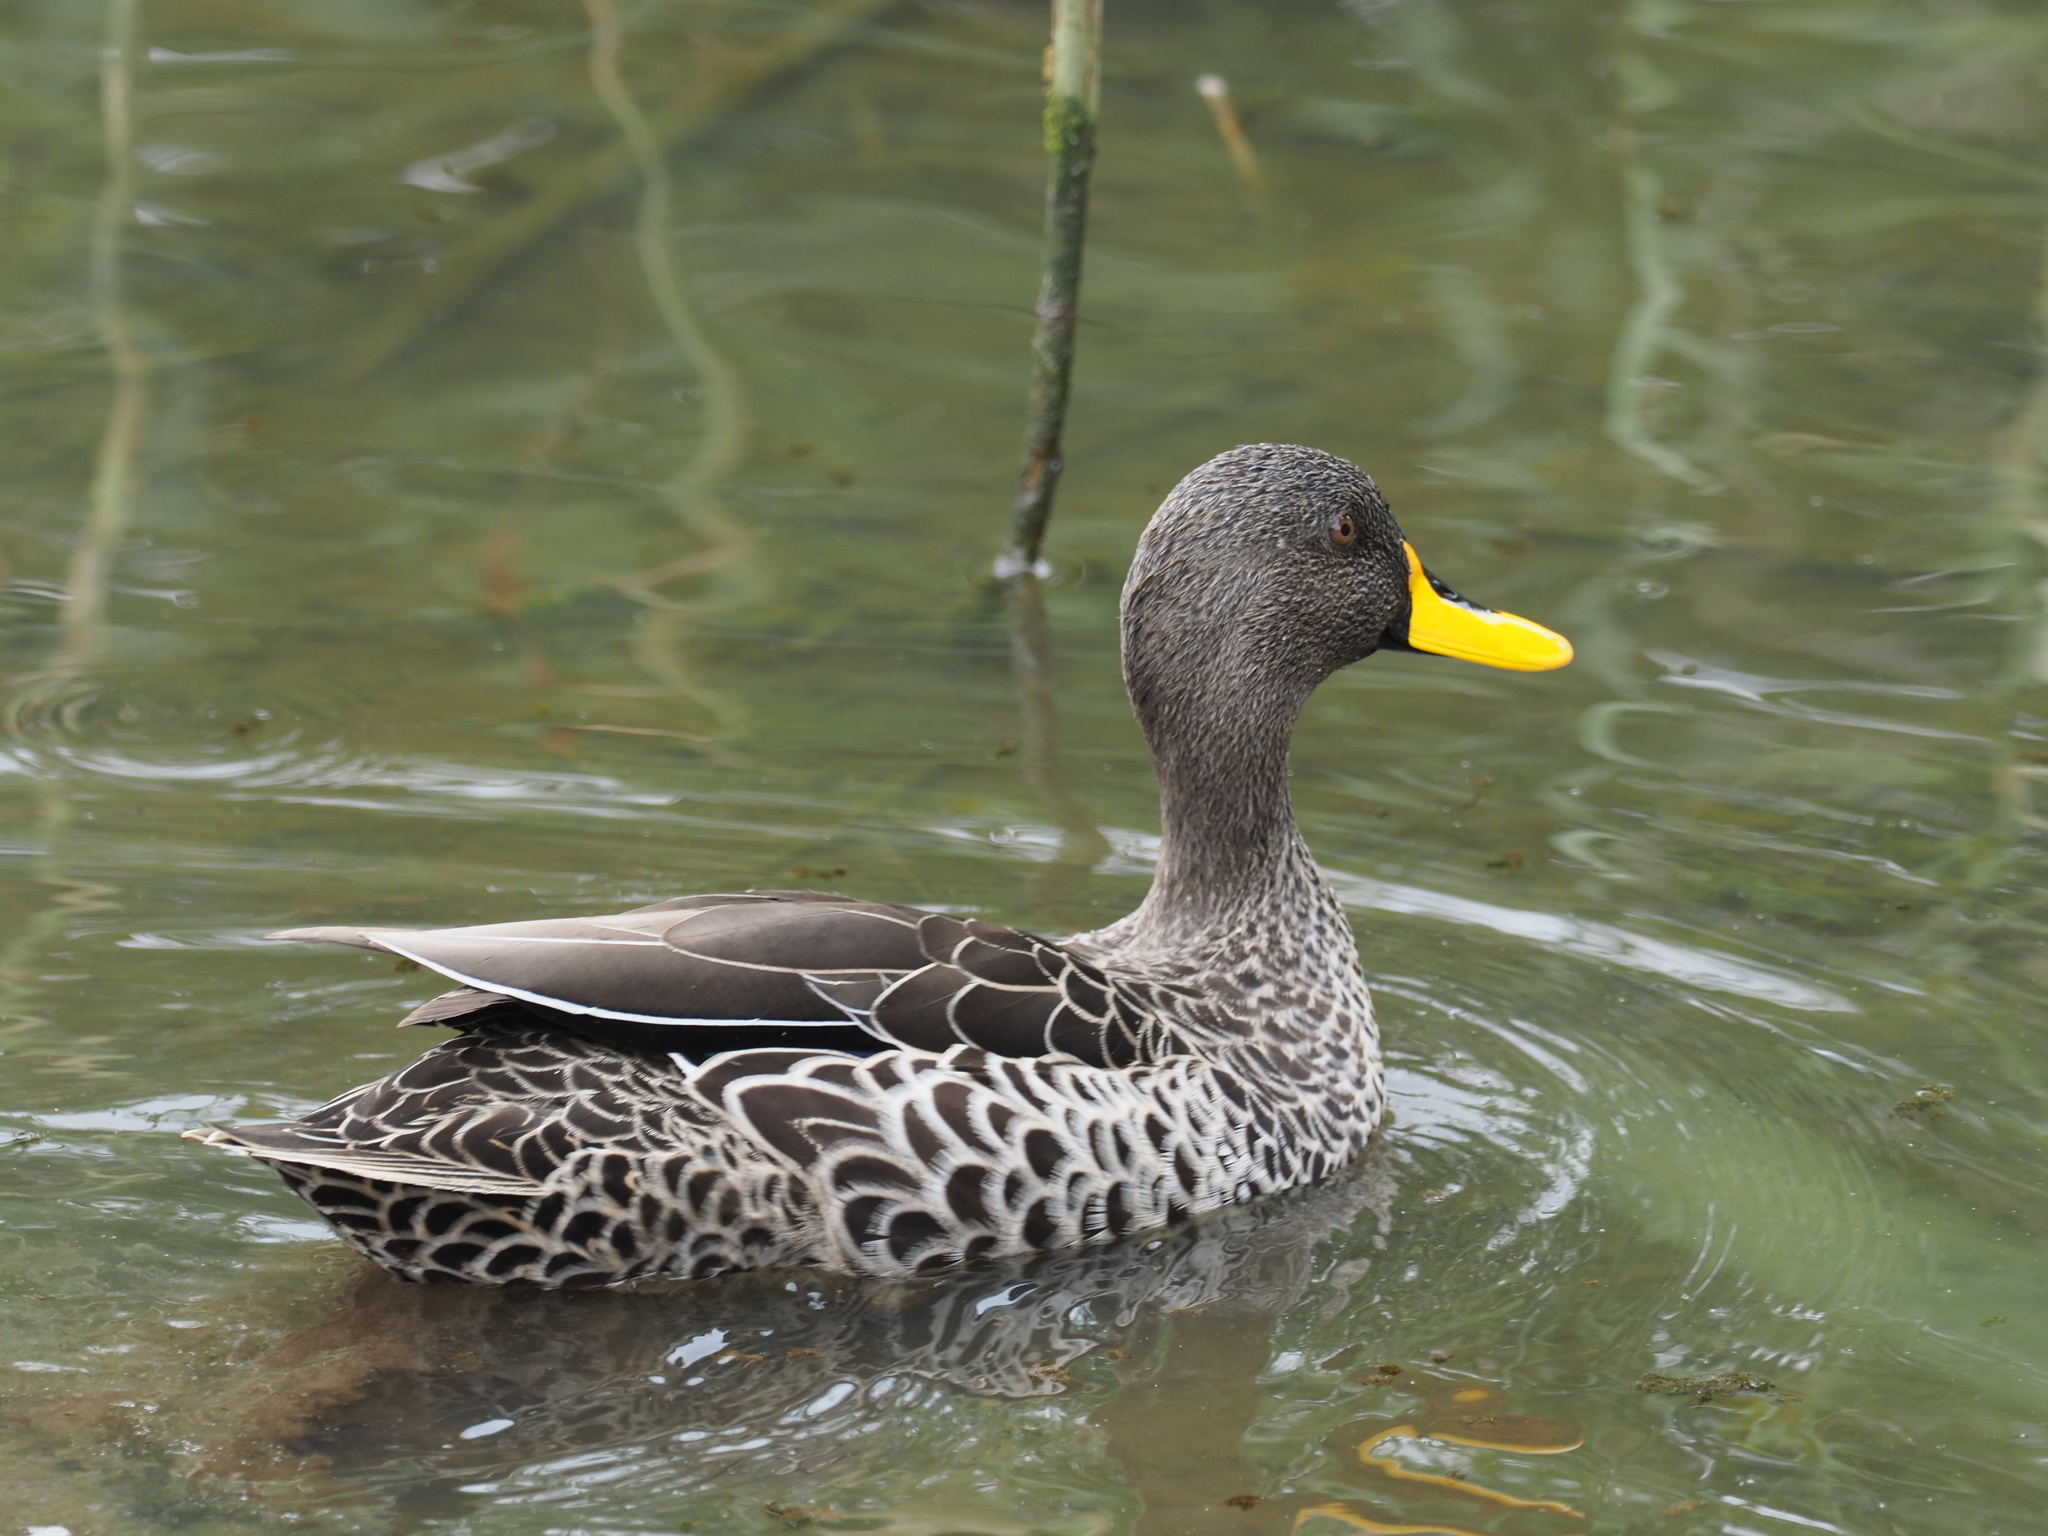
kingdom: Animalia
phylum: Chordata
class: Aves
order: Anseriformes
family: Anatidae
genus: Anas
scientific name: Anas undulata
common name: Yellow-billed duck
